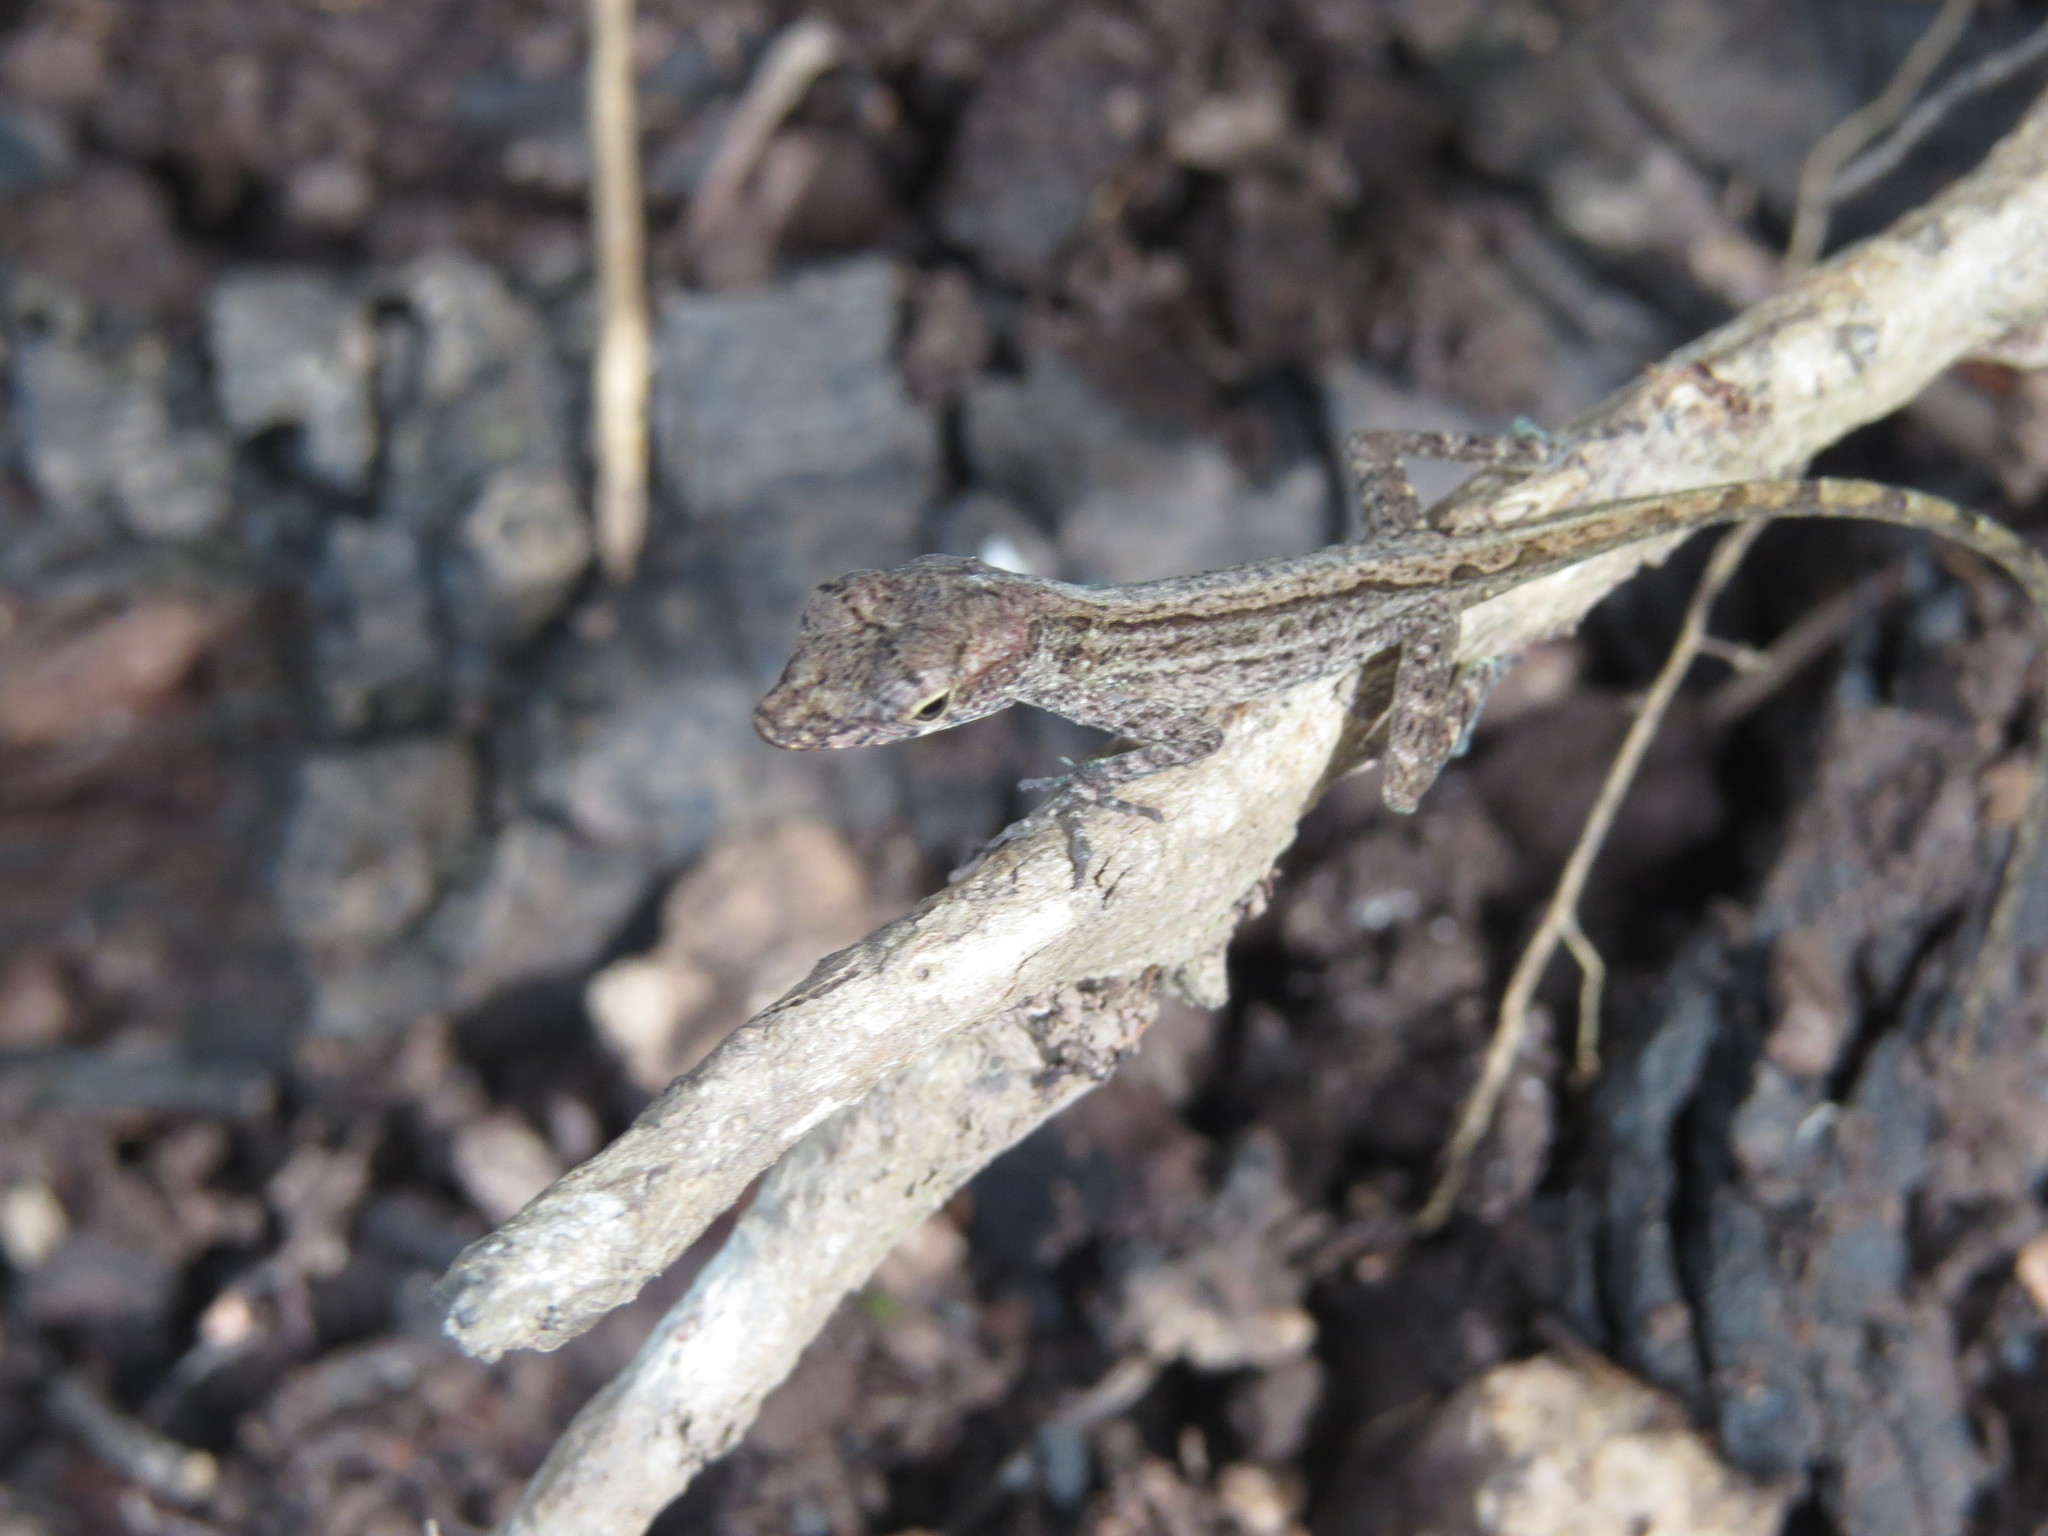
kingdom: Animalia
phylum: Chordata
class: Squamata
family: Dactyloidae
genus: Anolis
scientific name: Anolis pinchoti
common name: Crab cay anole
